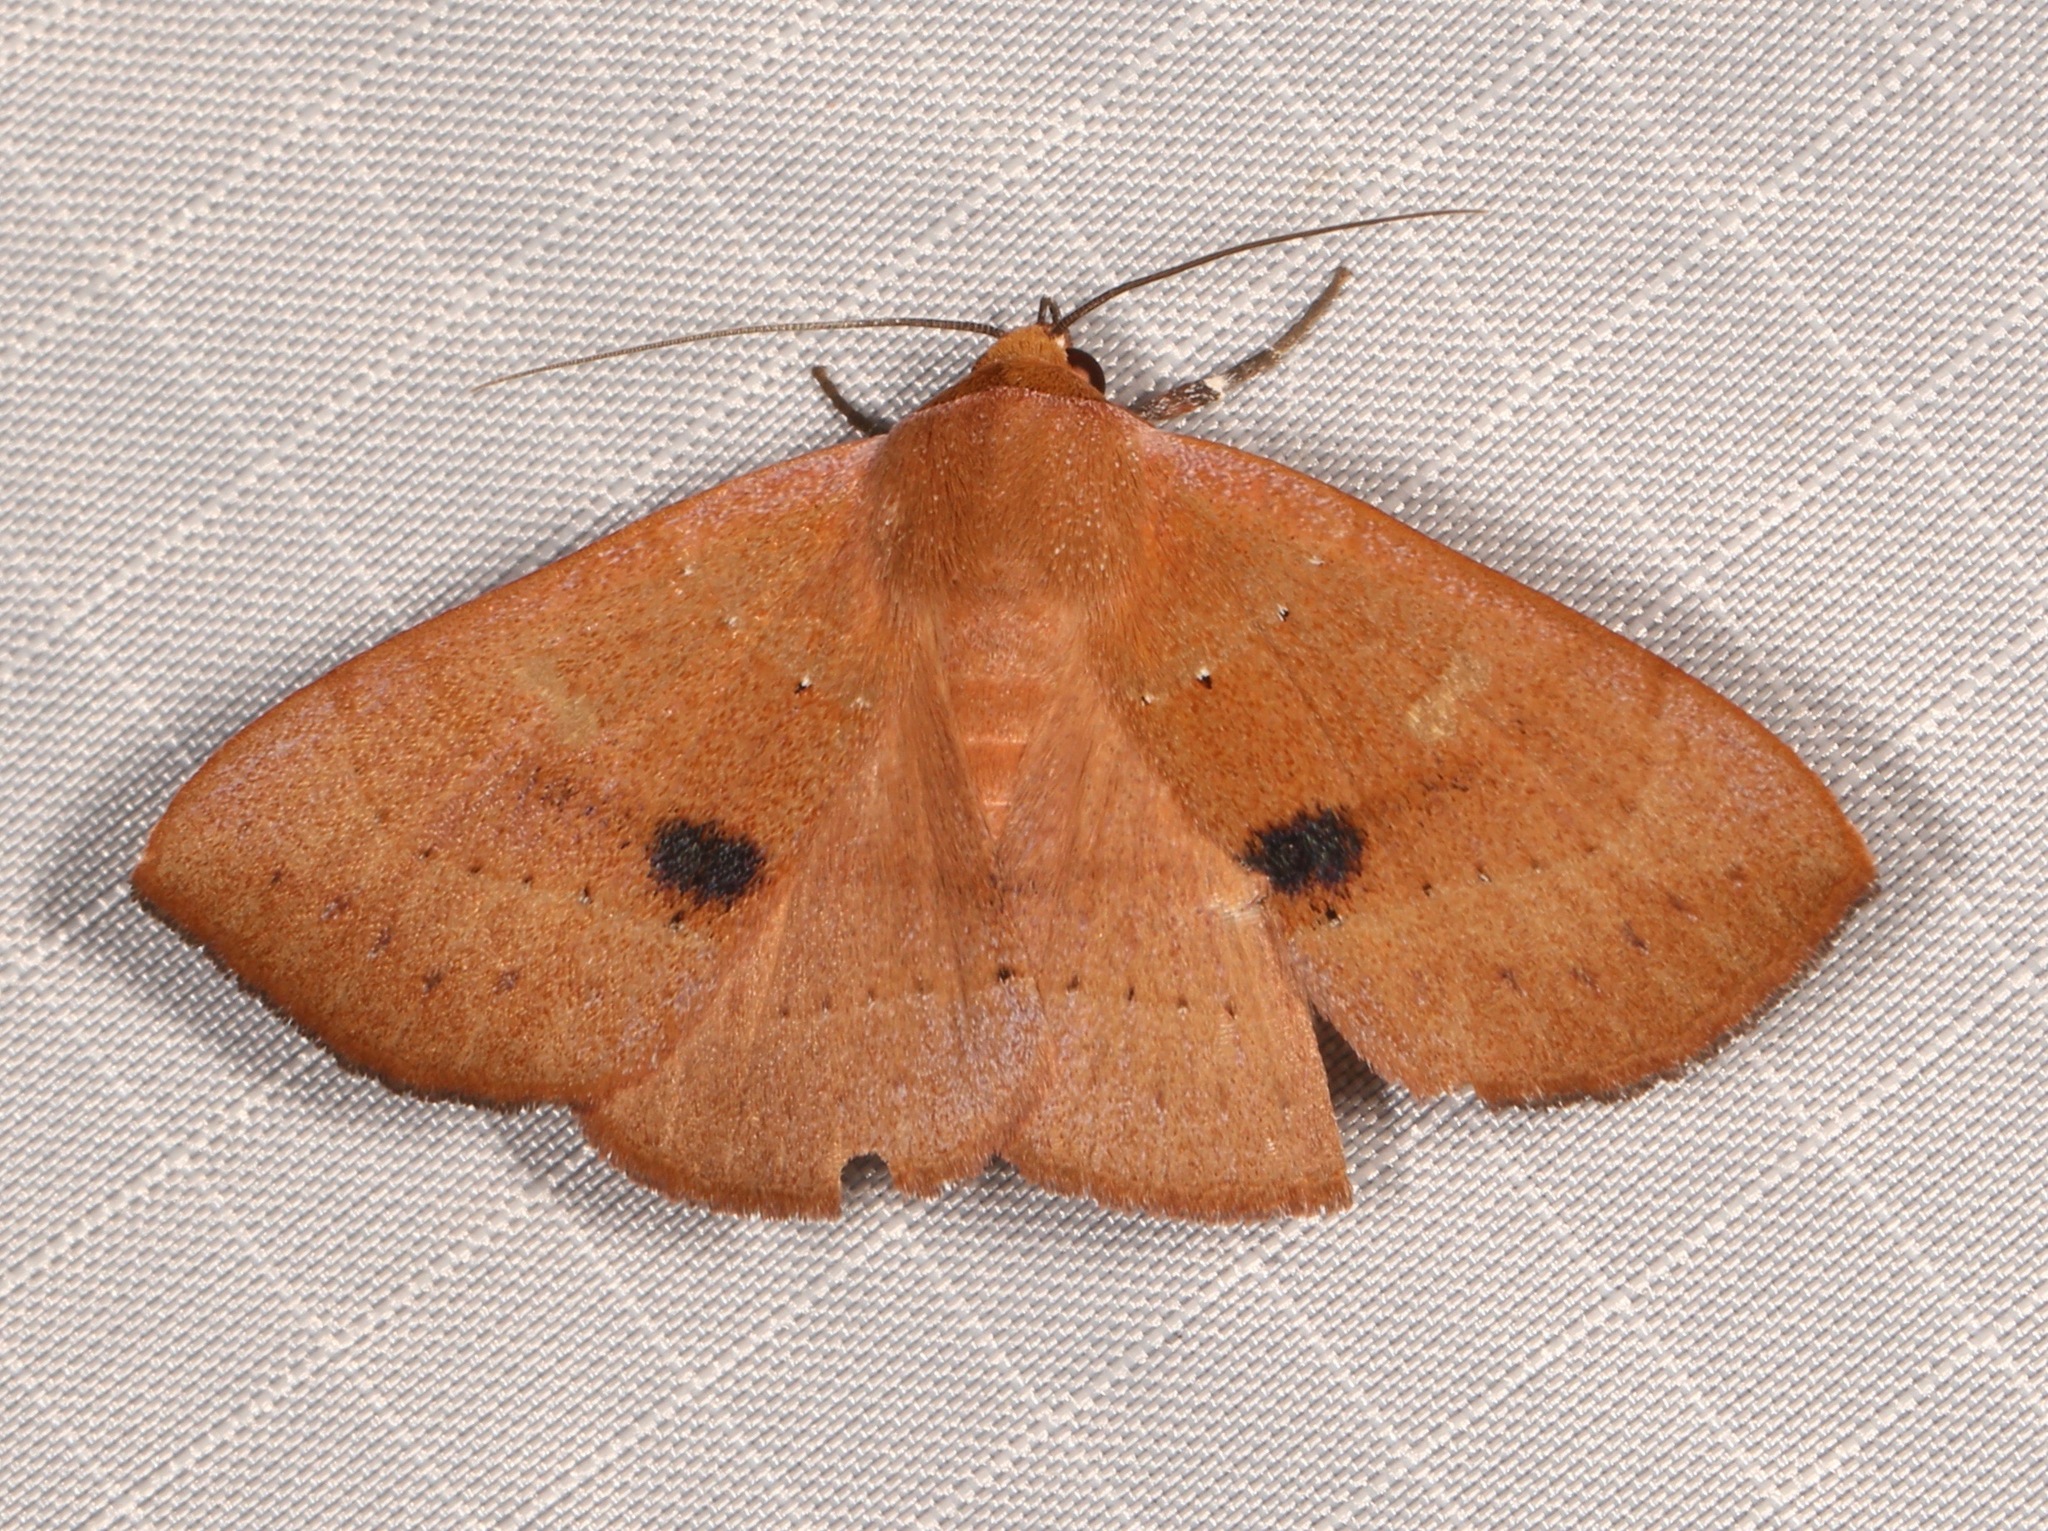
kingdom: Animalia
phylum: Arthropoda
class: Insecta
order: Lepidoptera
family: Erebidae
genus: Panopoda
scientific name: Panopoda repanda
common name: Orange panopoda
